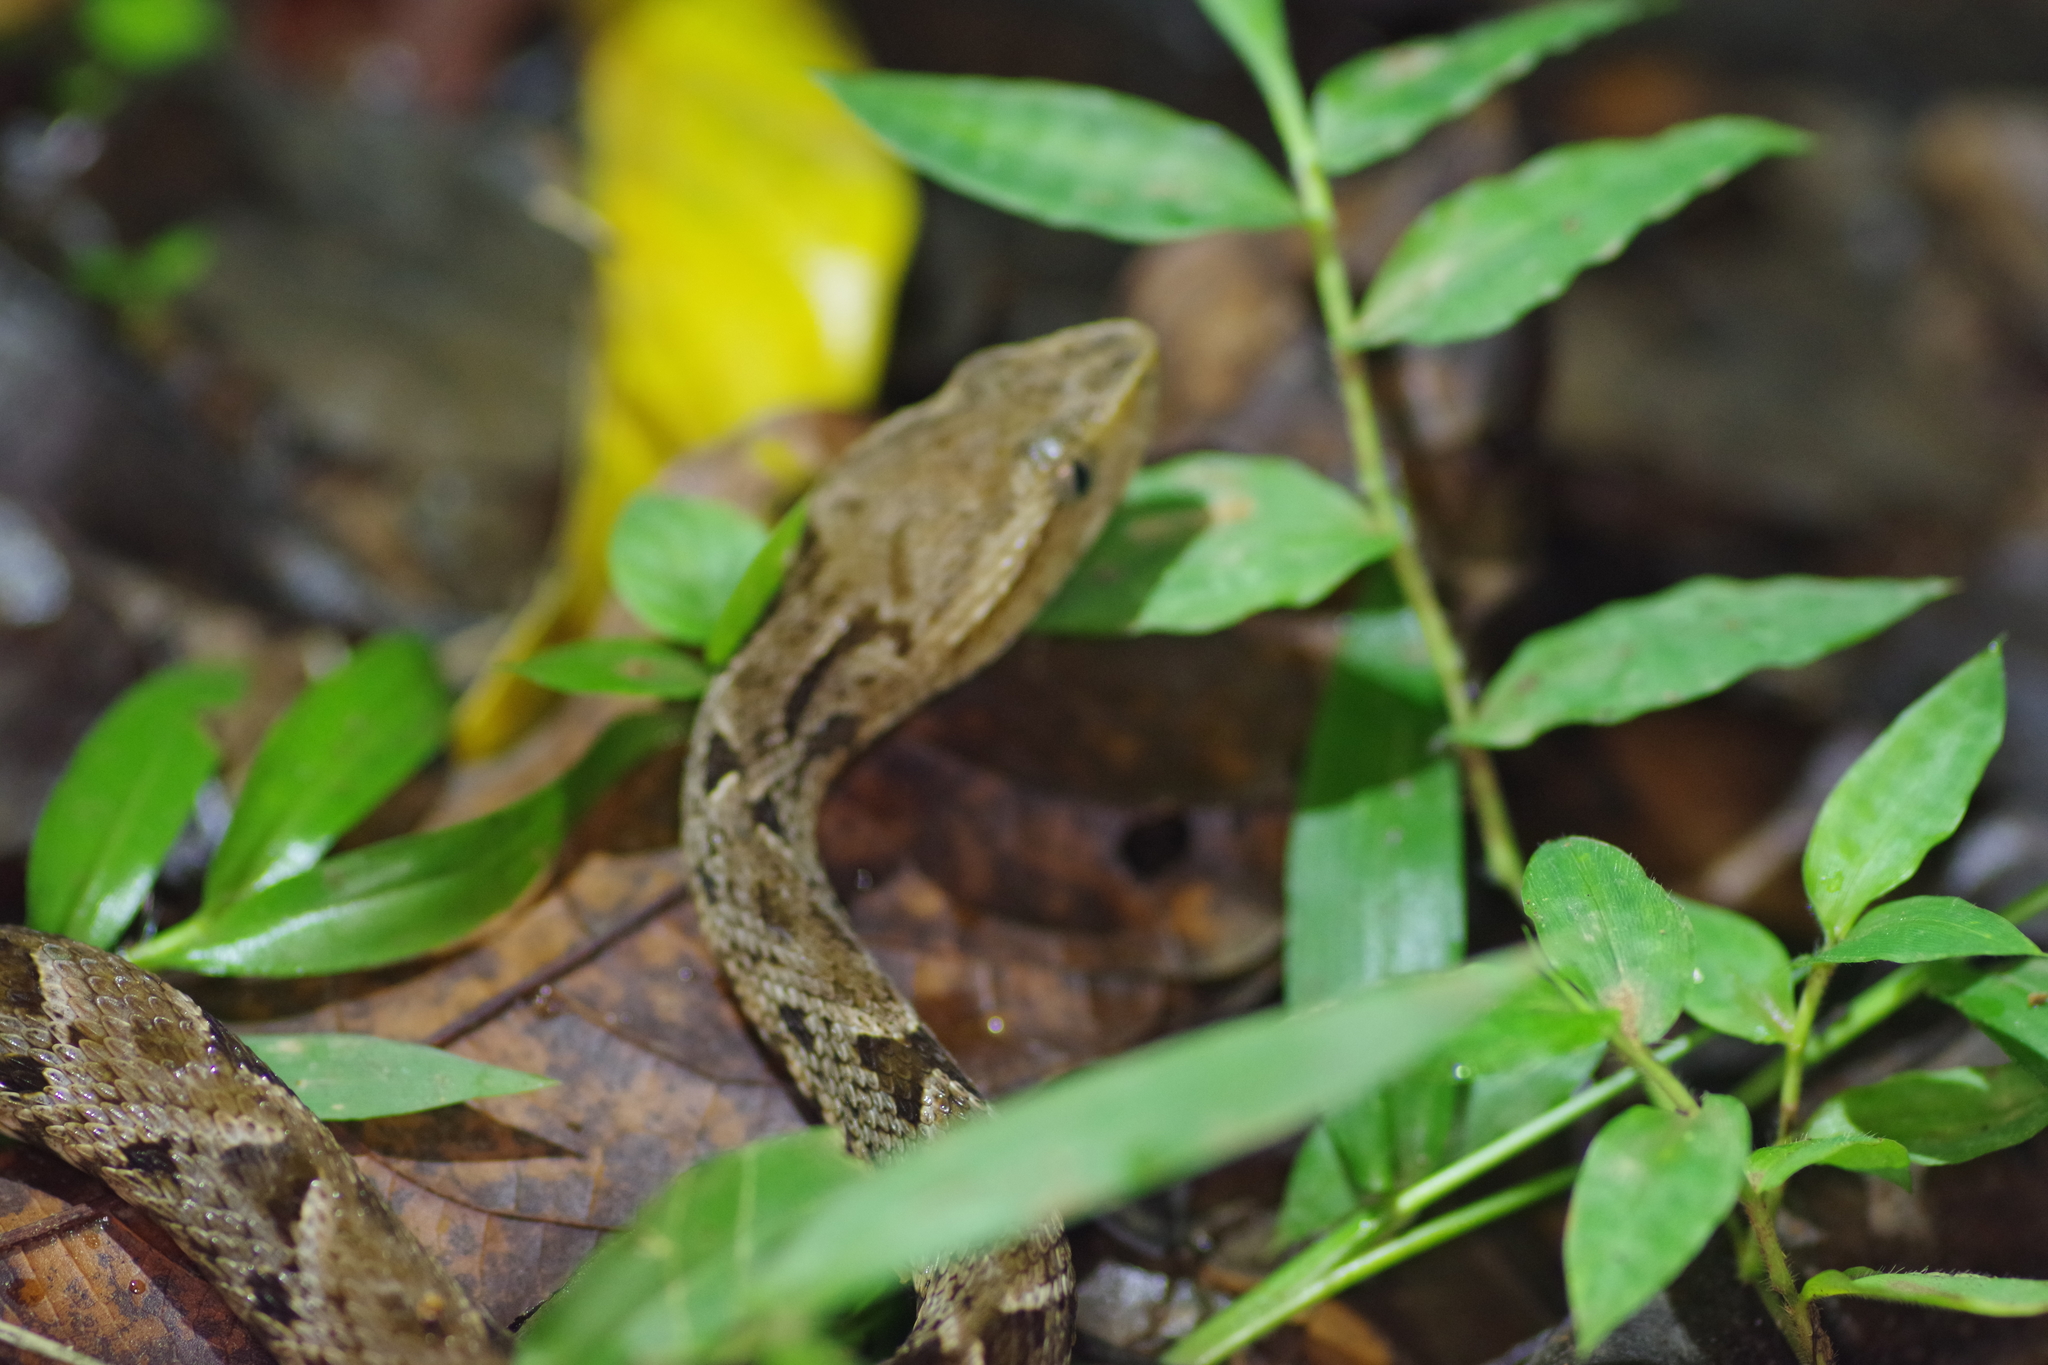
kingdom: Animalia
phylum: Chordata
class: Squamata
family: Viperidae
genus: Bothrops
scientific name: Bothrops asper
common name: Terciopelo
